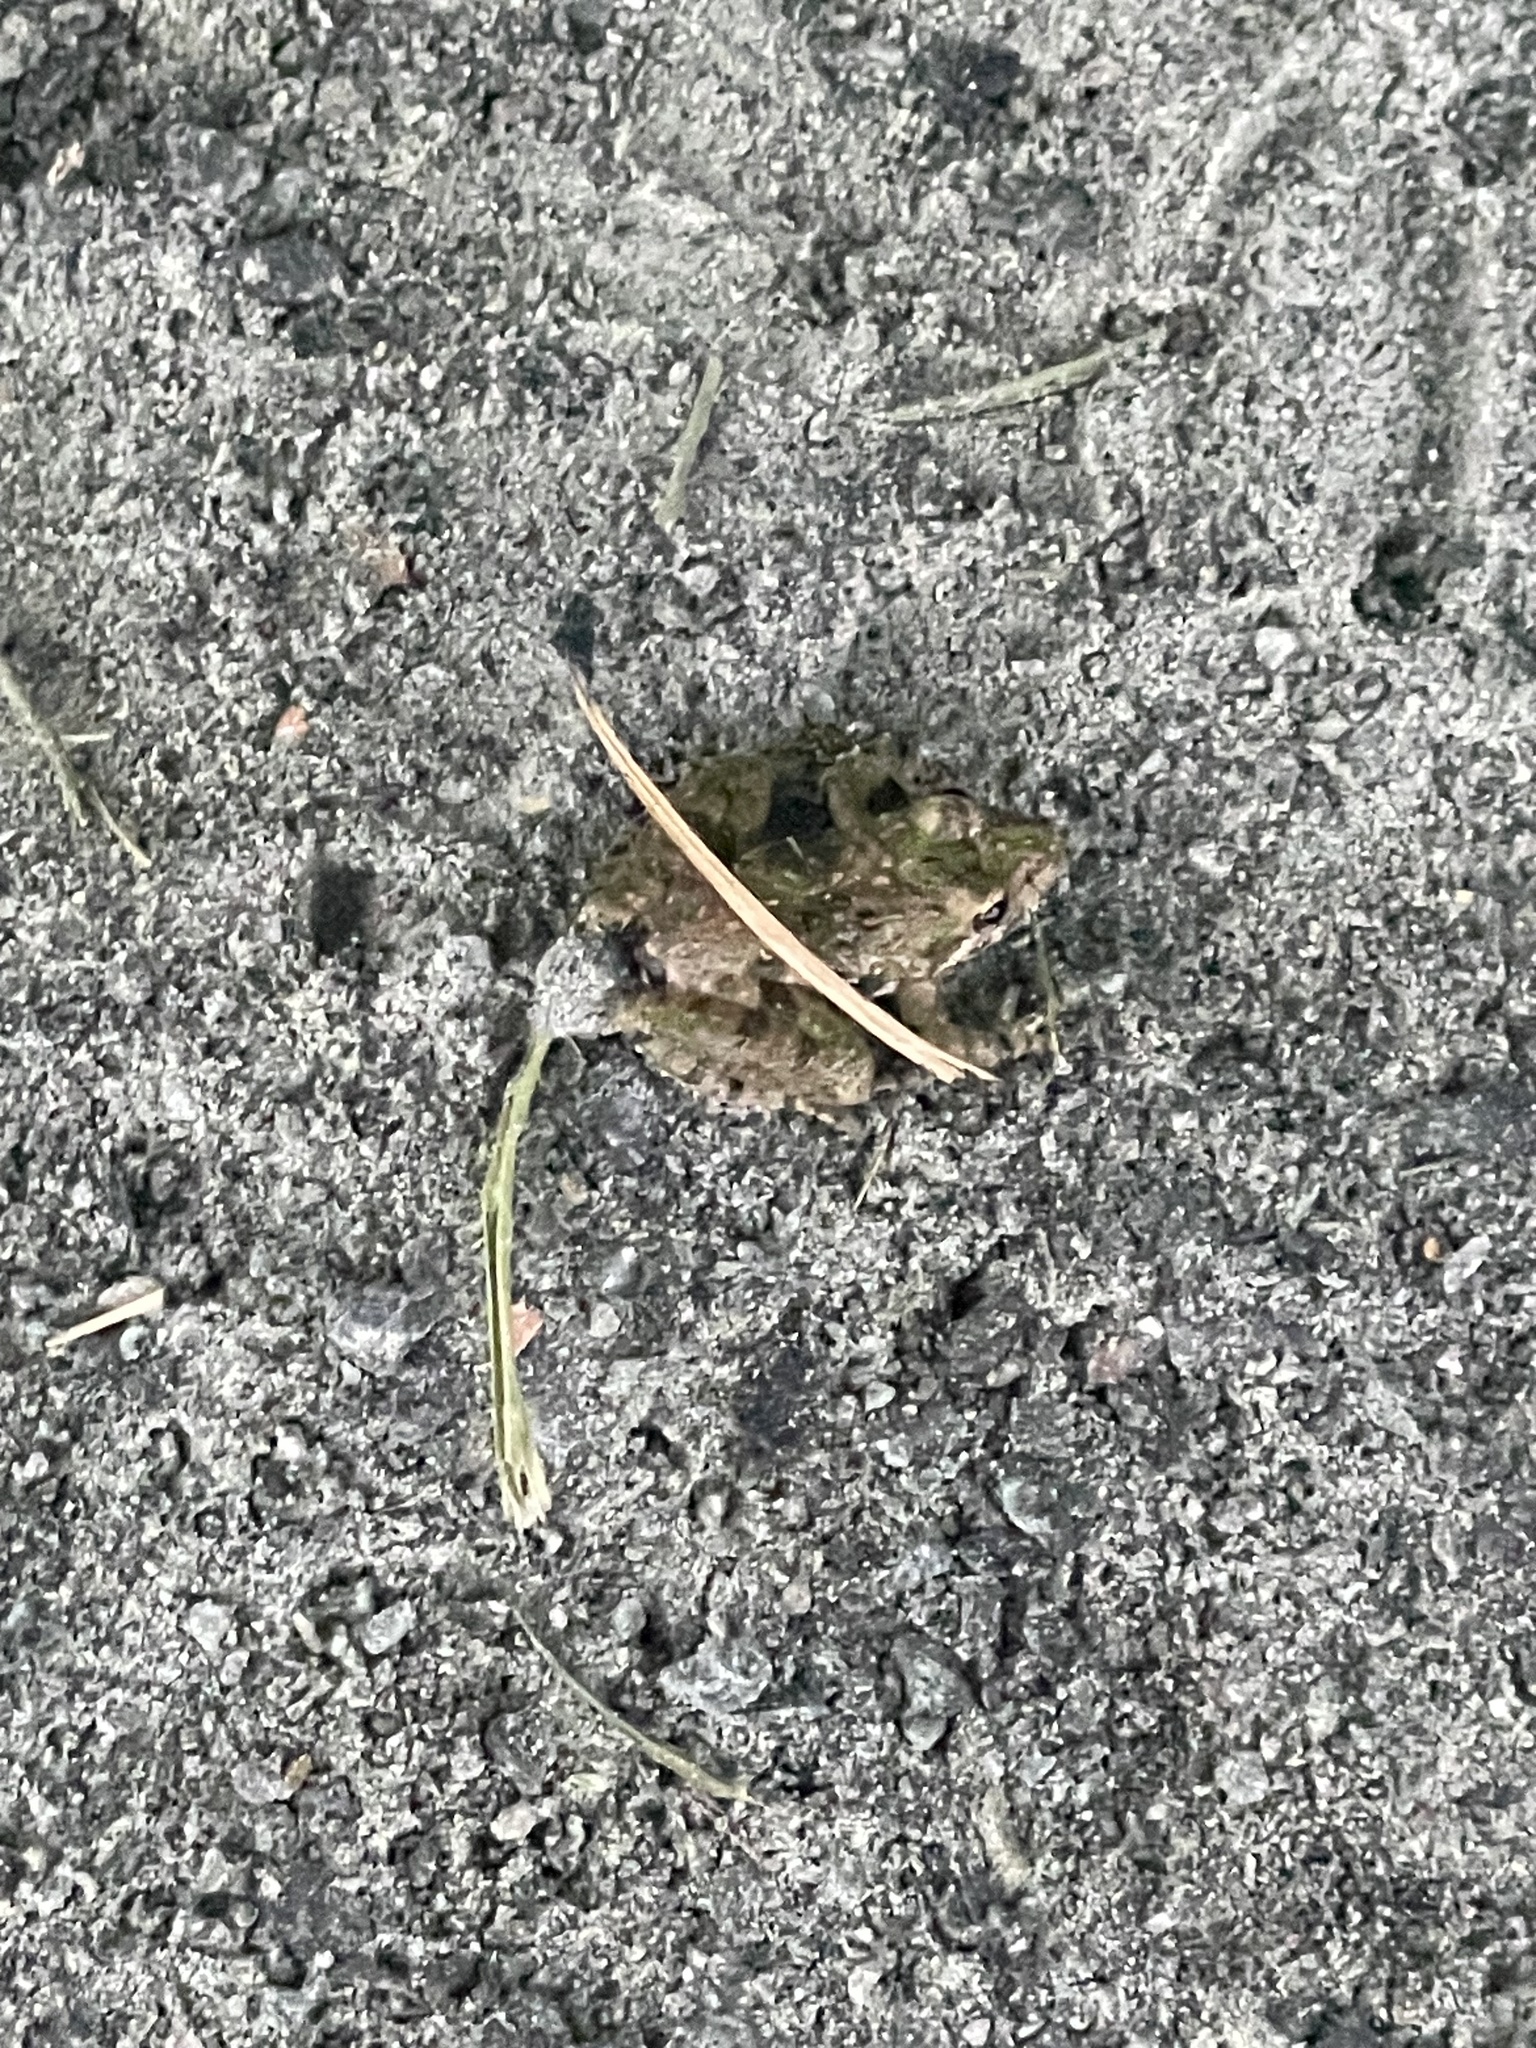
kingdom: Animalia
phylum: Chordata
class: Amphibia
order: Anura
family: Hylidae
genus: Acris
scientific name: Acris crepitans
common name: Northern cricket frog
